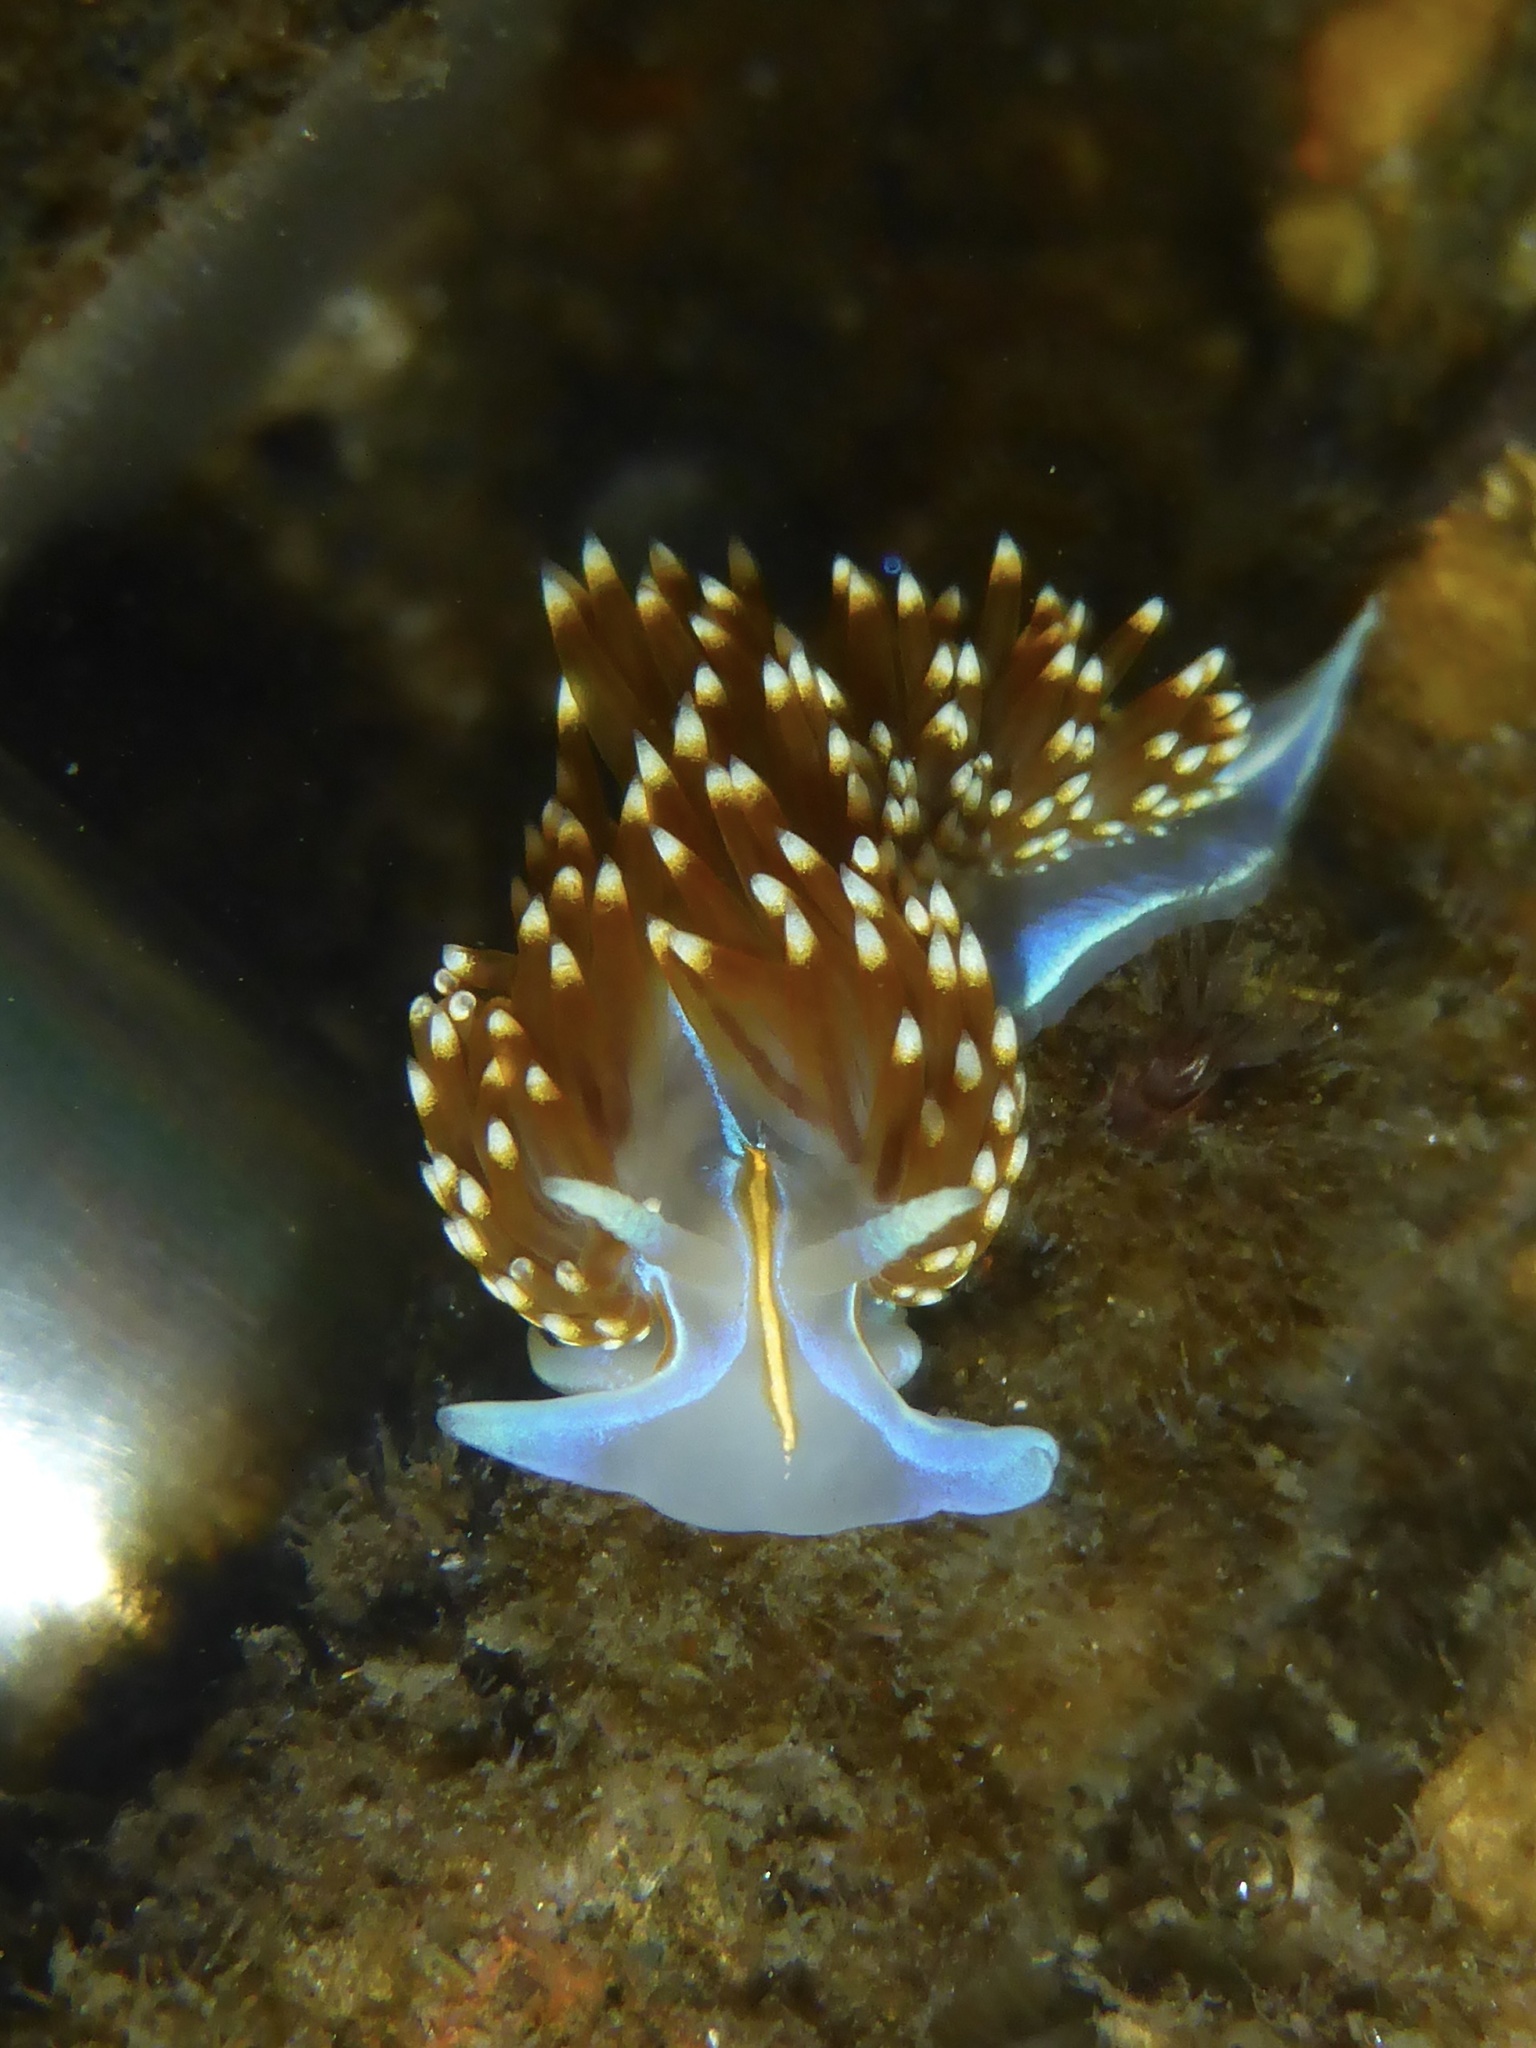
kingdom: Animalia
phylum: Mollusca
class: Gastropoda
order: Nudibranchia
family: Myrrhinidae
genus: Hermissenda
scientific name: Hermissenda opalescens
